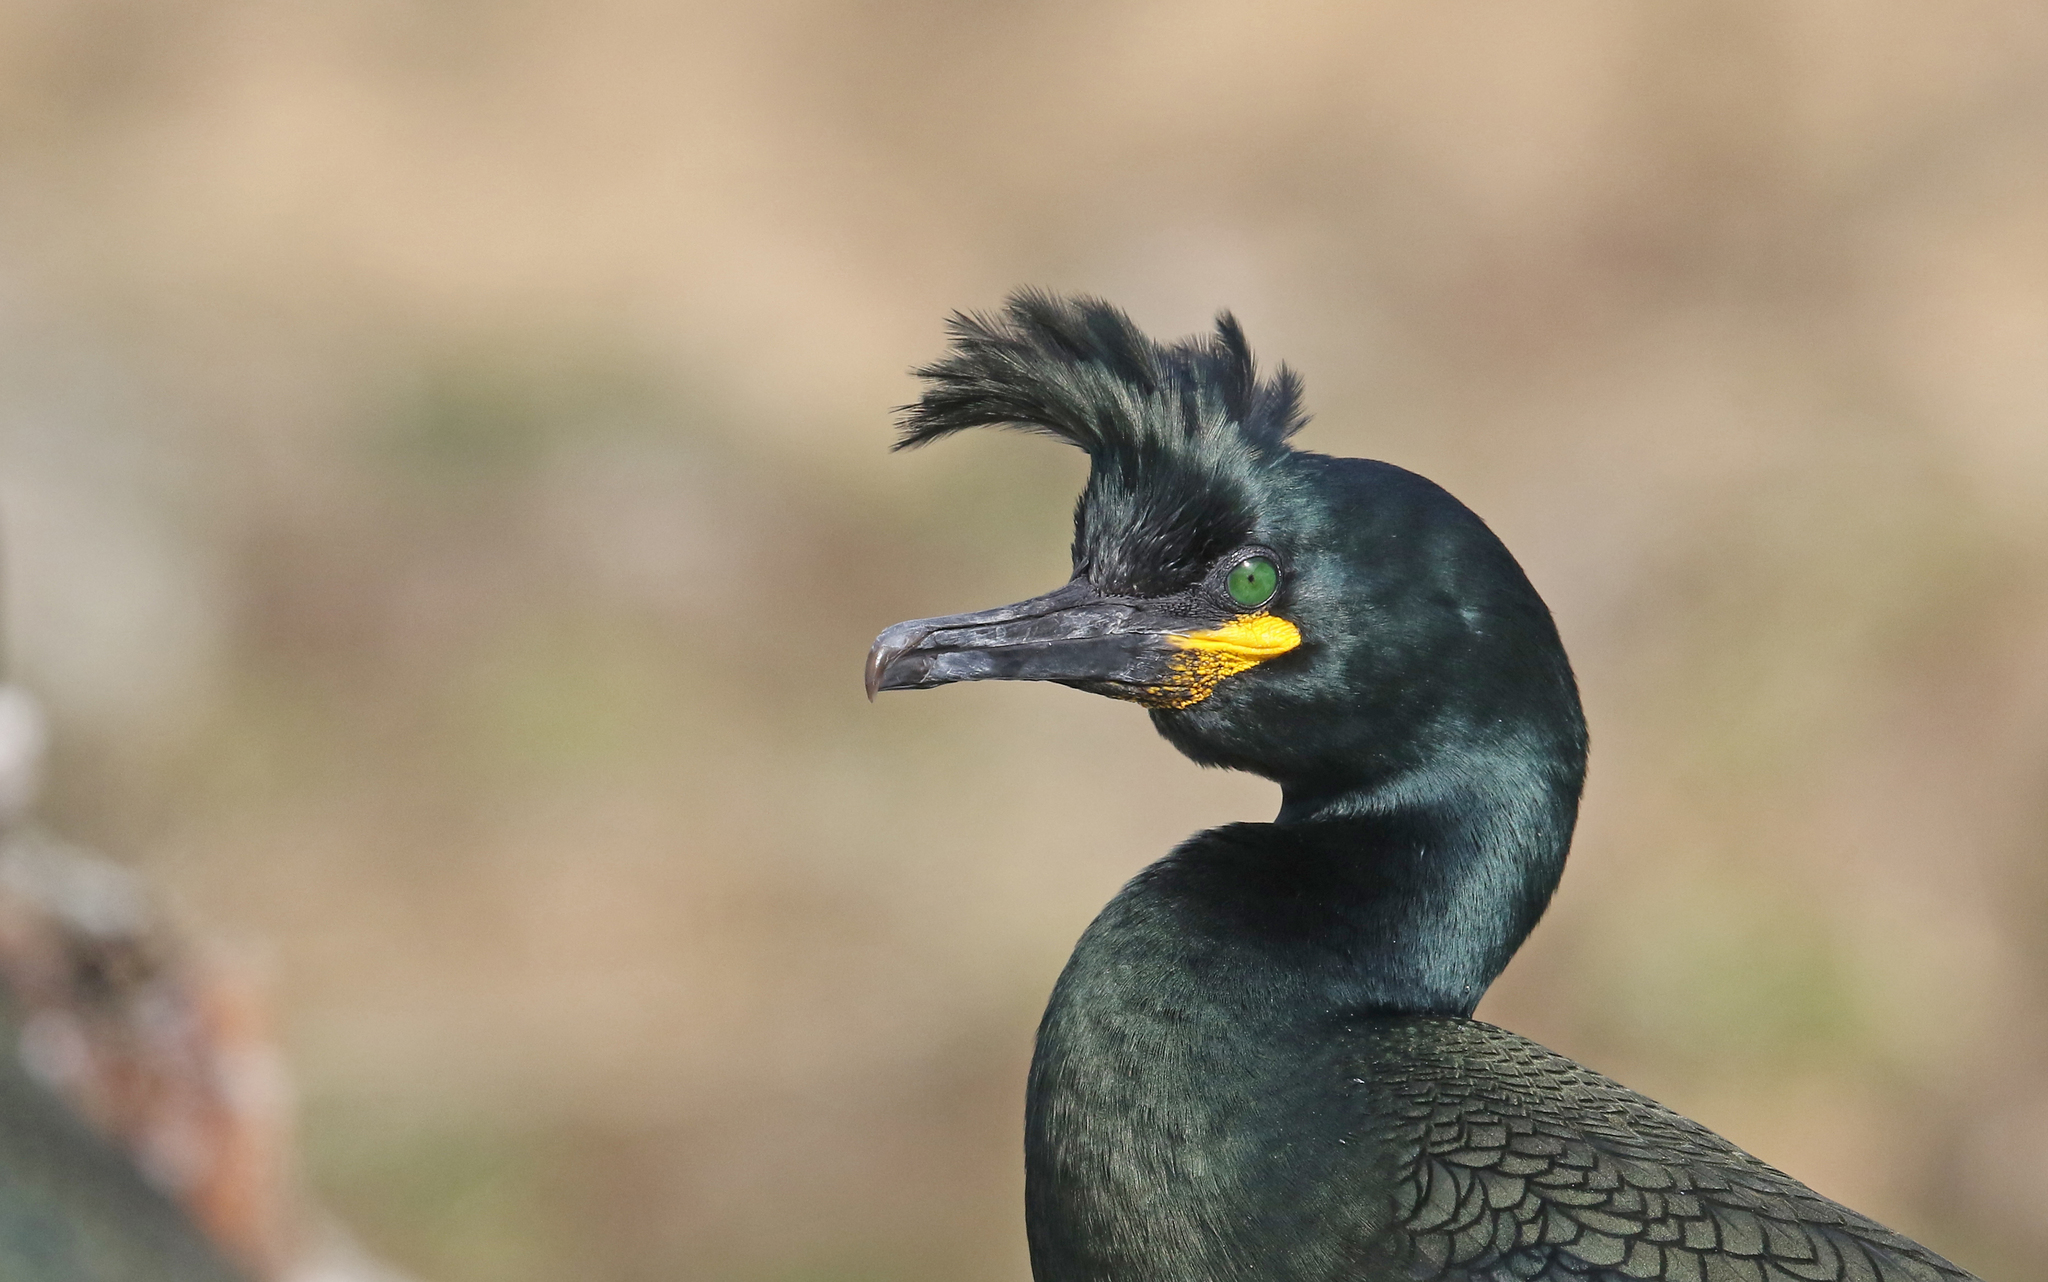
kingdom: Animalia
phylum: Chordata
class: Aves
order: Suliformes
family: Phalacrocoracidae
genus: Phalacrocorax
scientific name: Phalacrocorax aristotelis
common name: European shag
